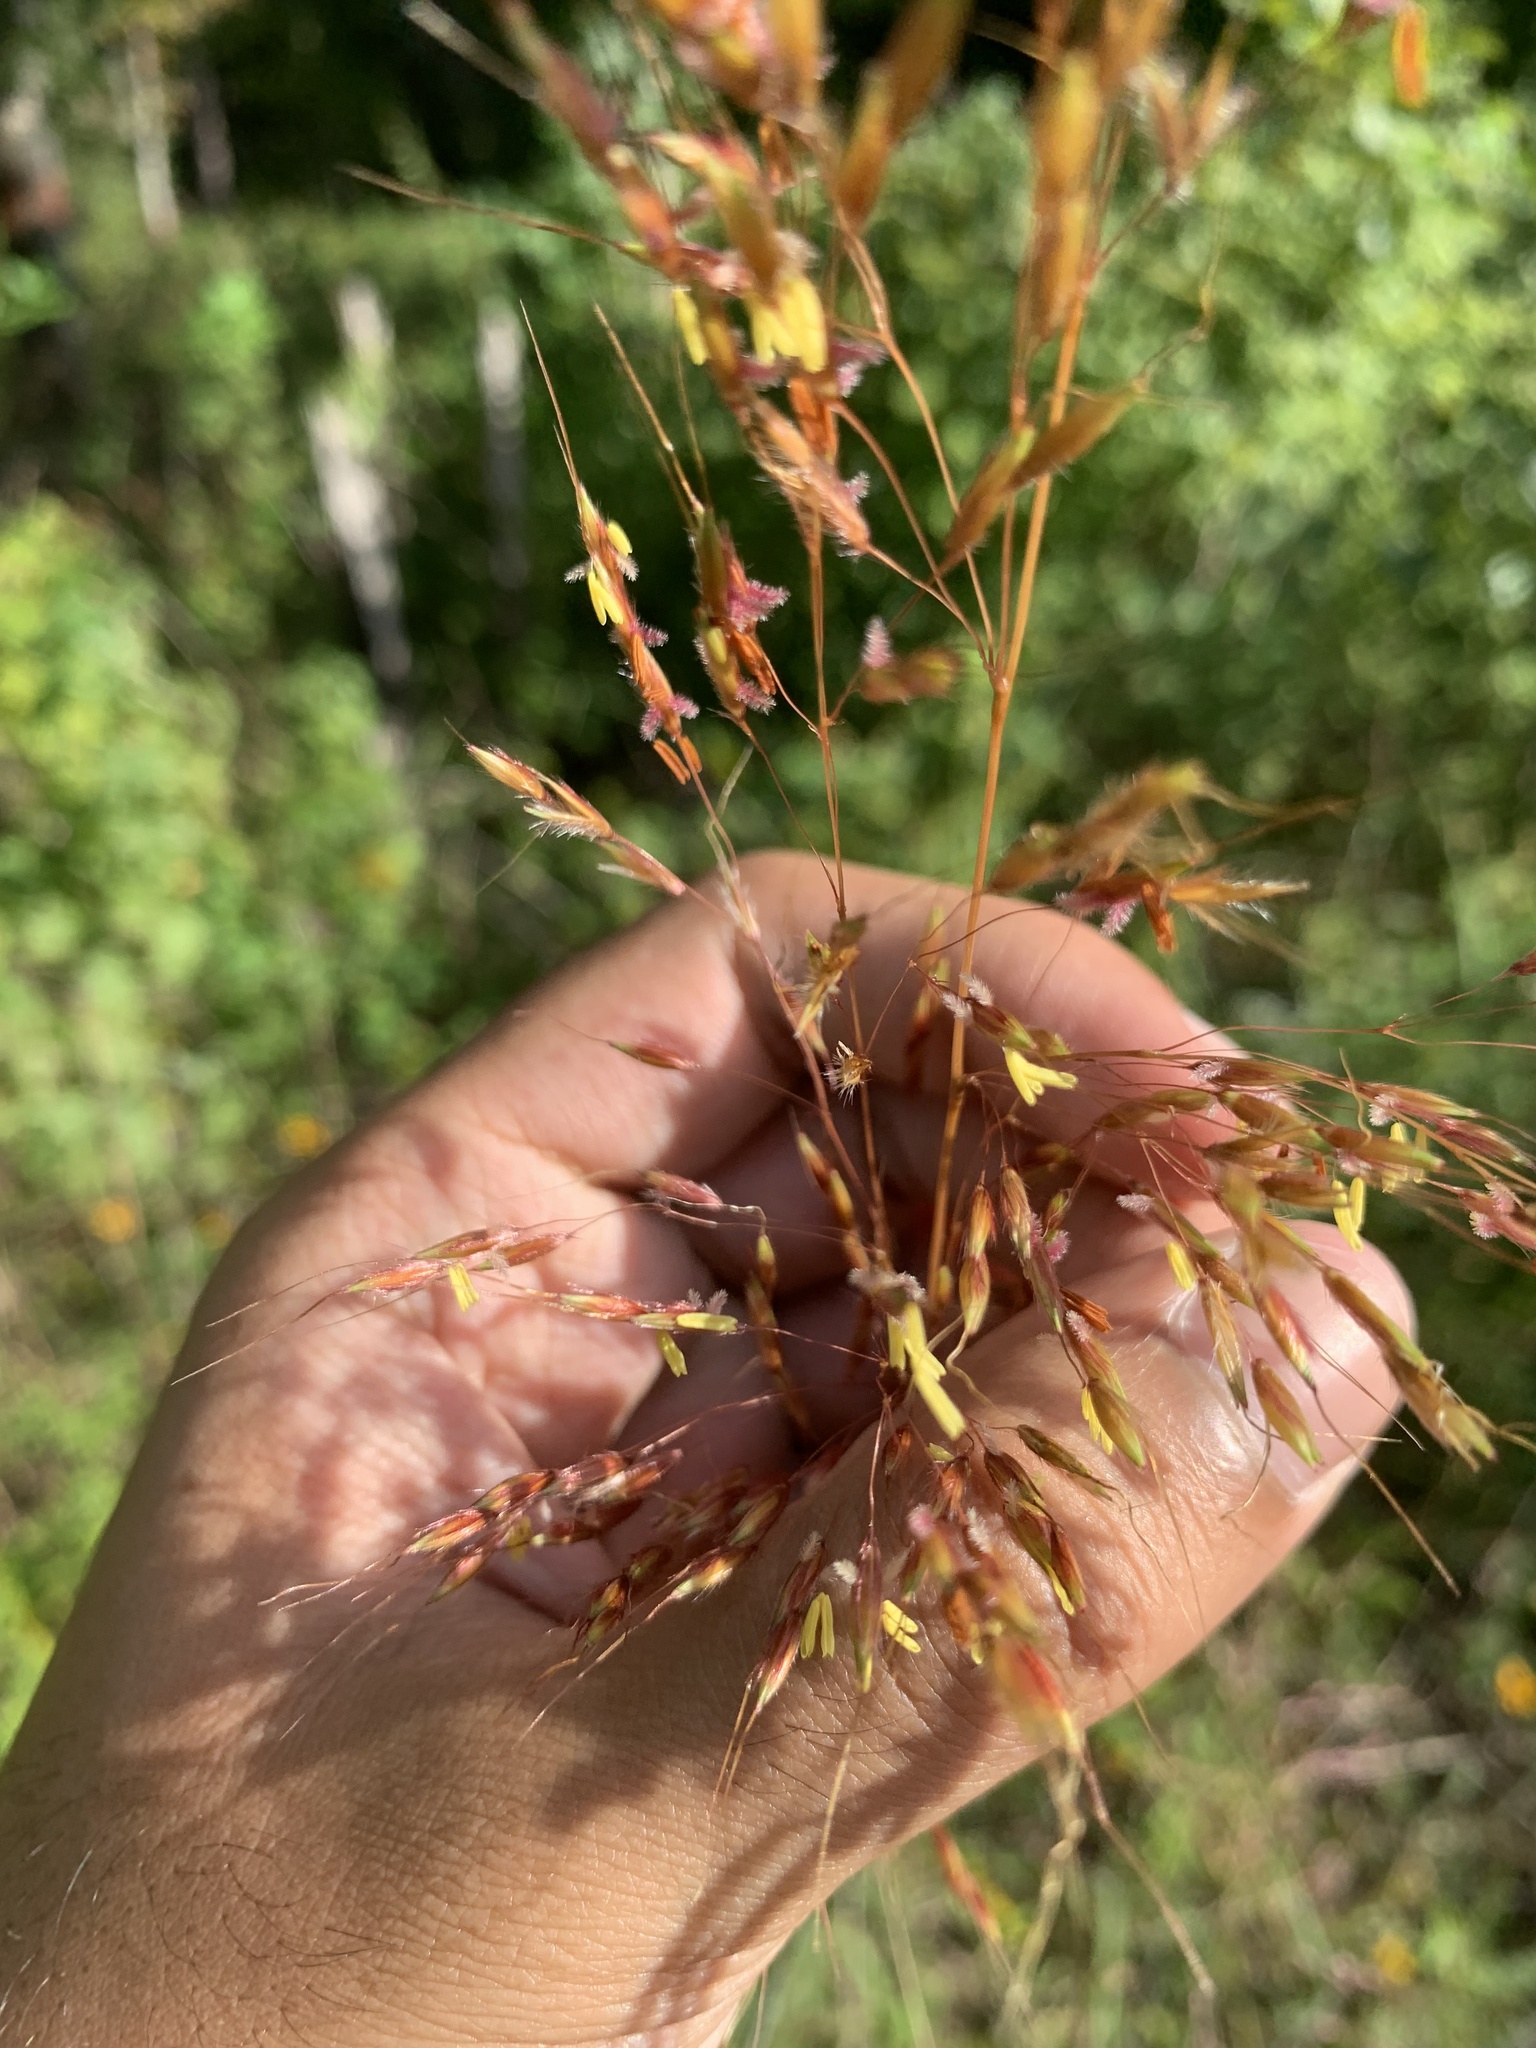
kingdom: Plantae
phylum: Tracheophyta
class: Liliopsida
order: Poales
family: Poaceae
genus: Sorghastrum
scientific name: Sorghastrum nutans
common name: Indian grass
